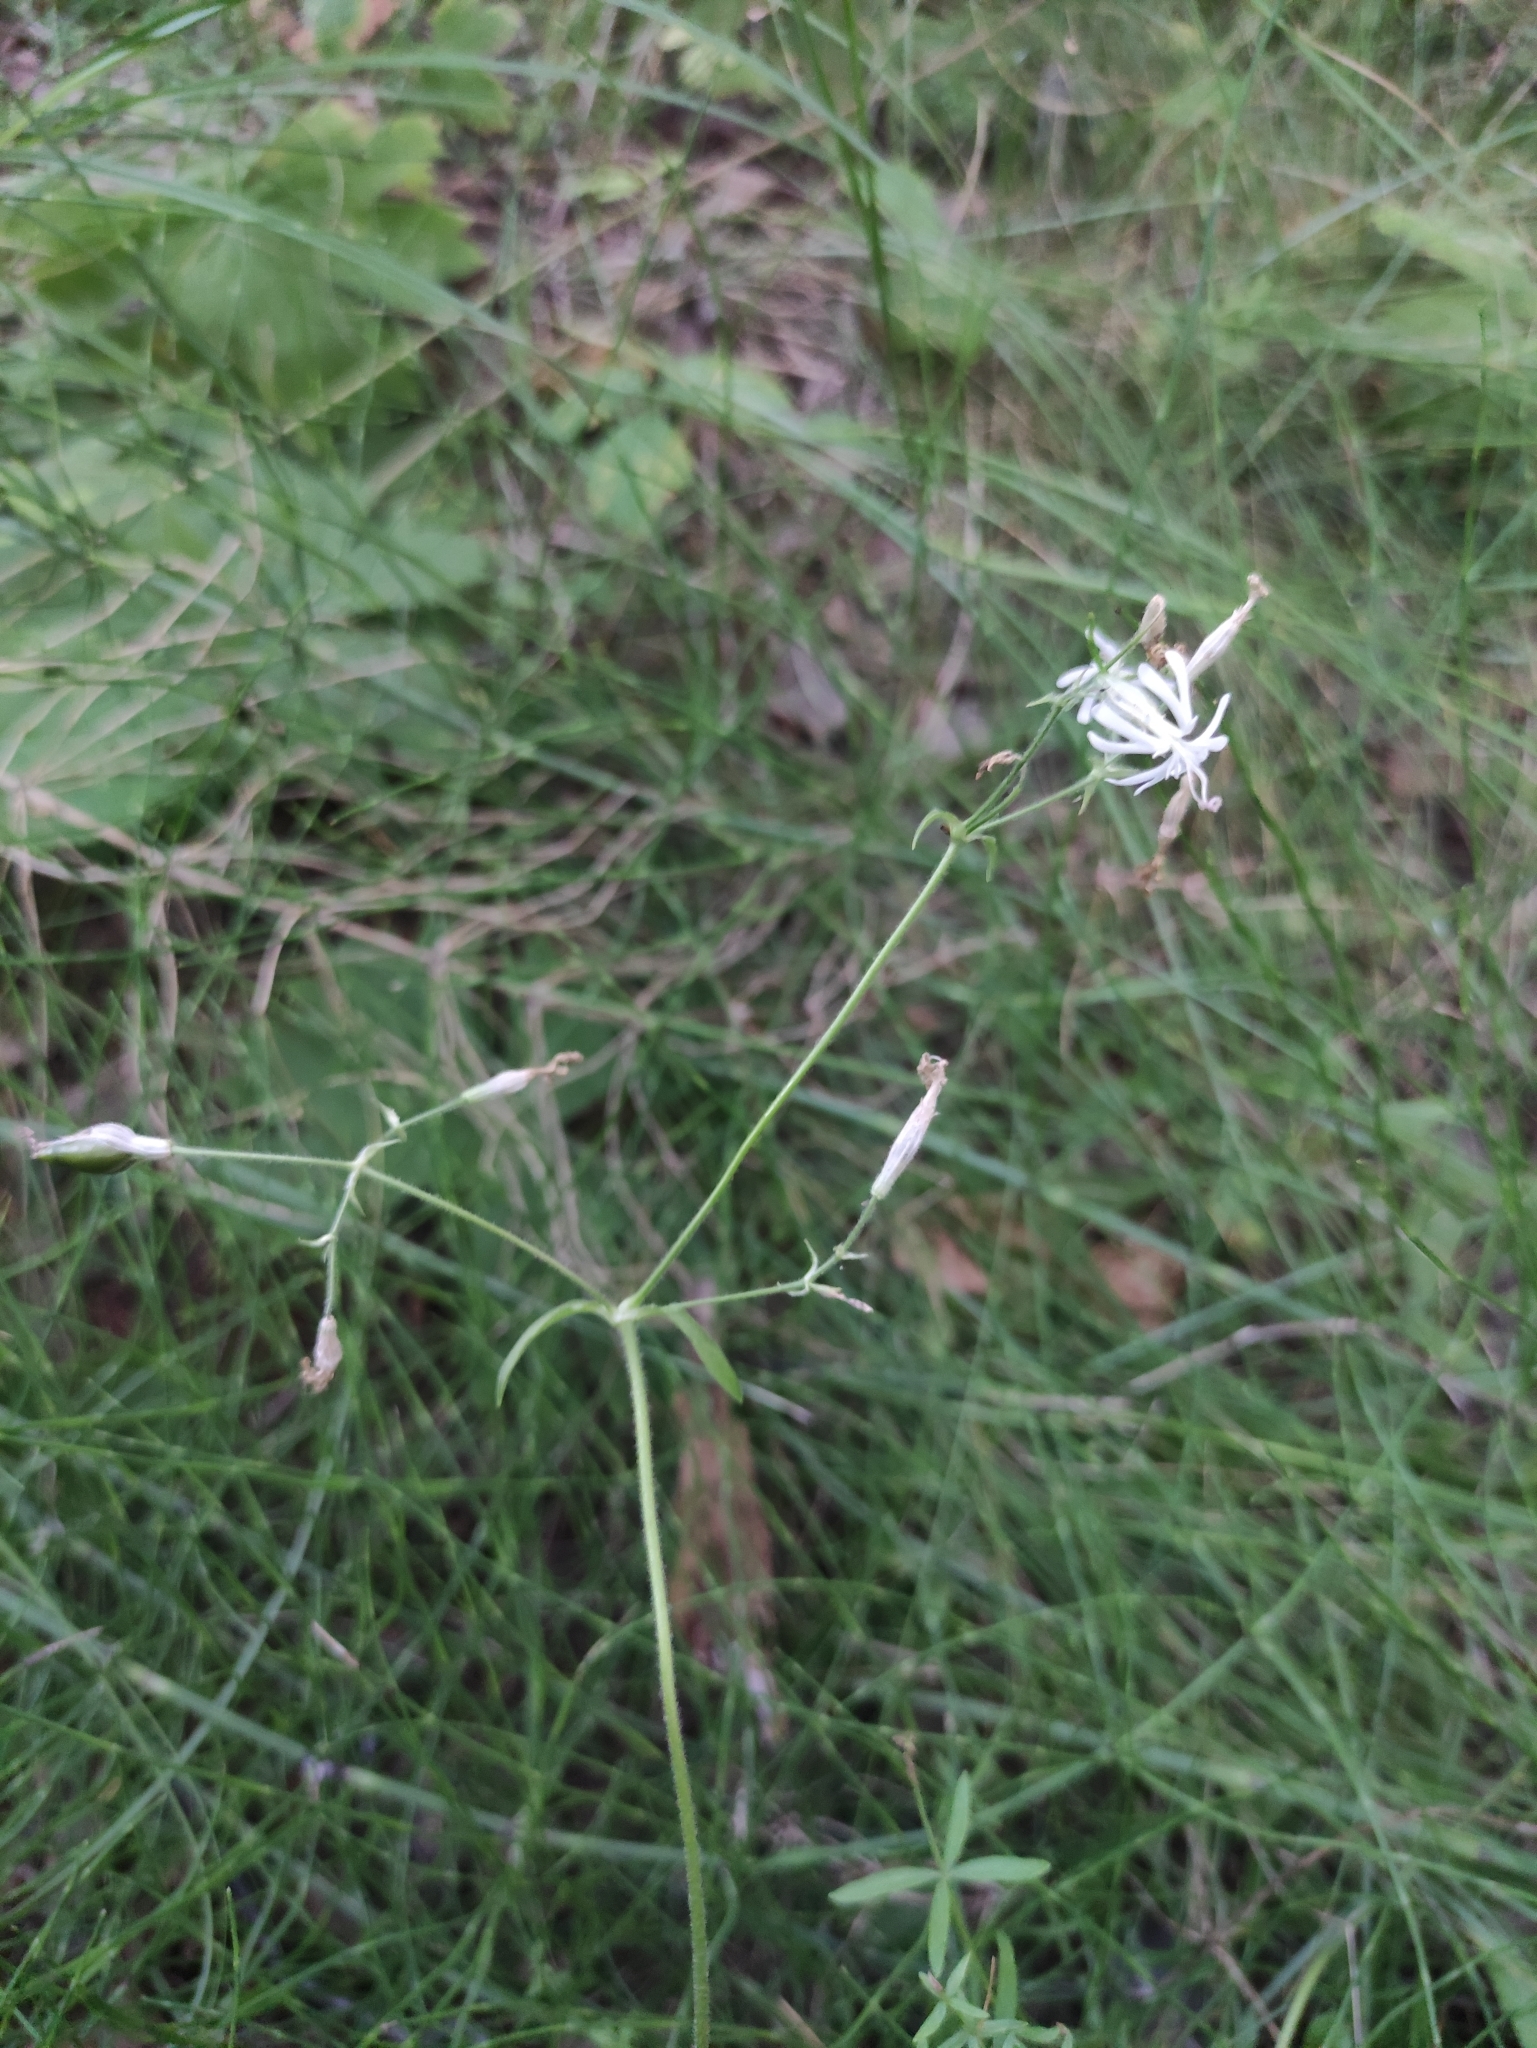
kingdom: Plantae
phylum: Tracheophyta
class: Magnoliopsida
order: Caryophyllales
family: Caryophyllaceae
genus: Silene
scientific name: Silene nutans
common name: Nottingham catchfly
